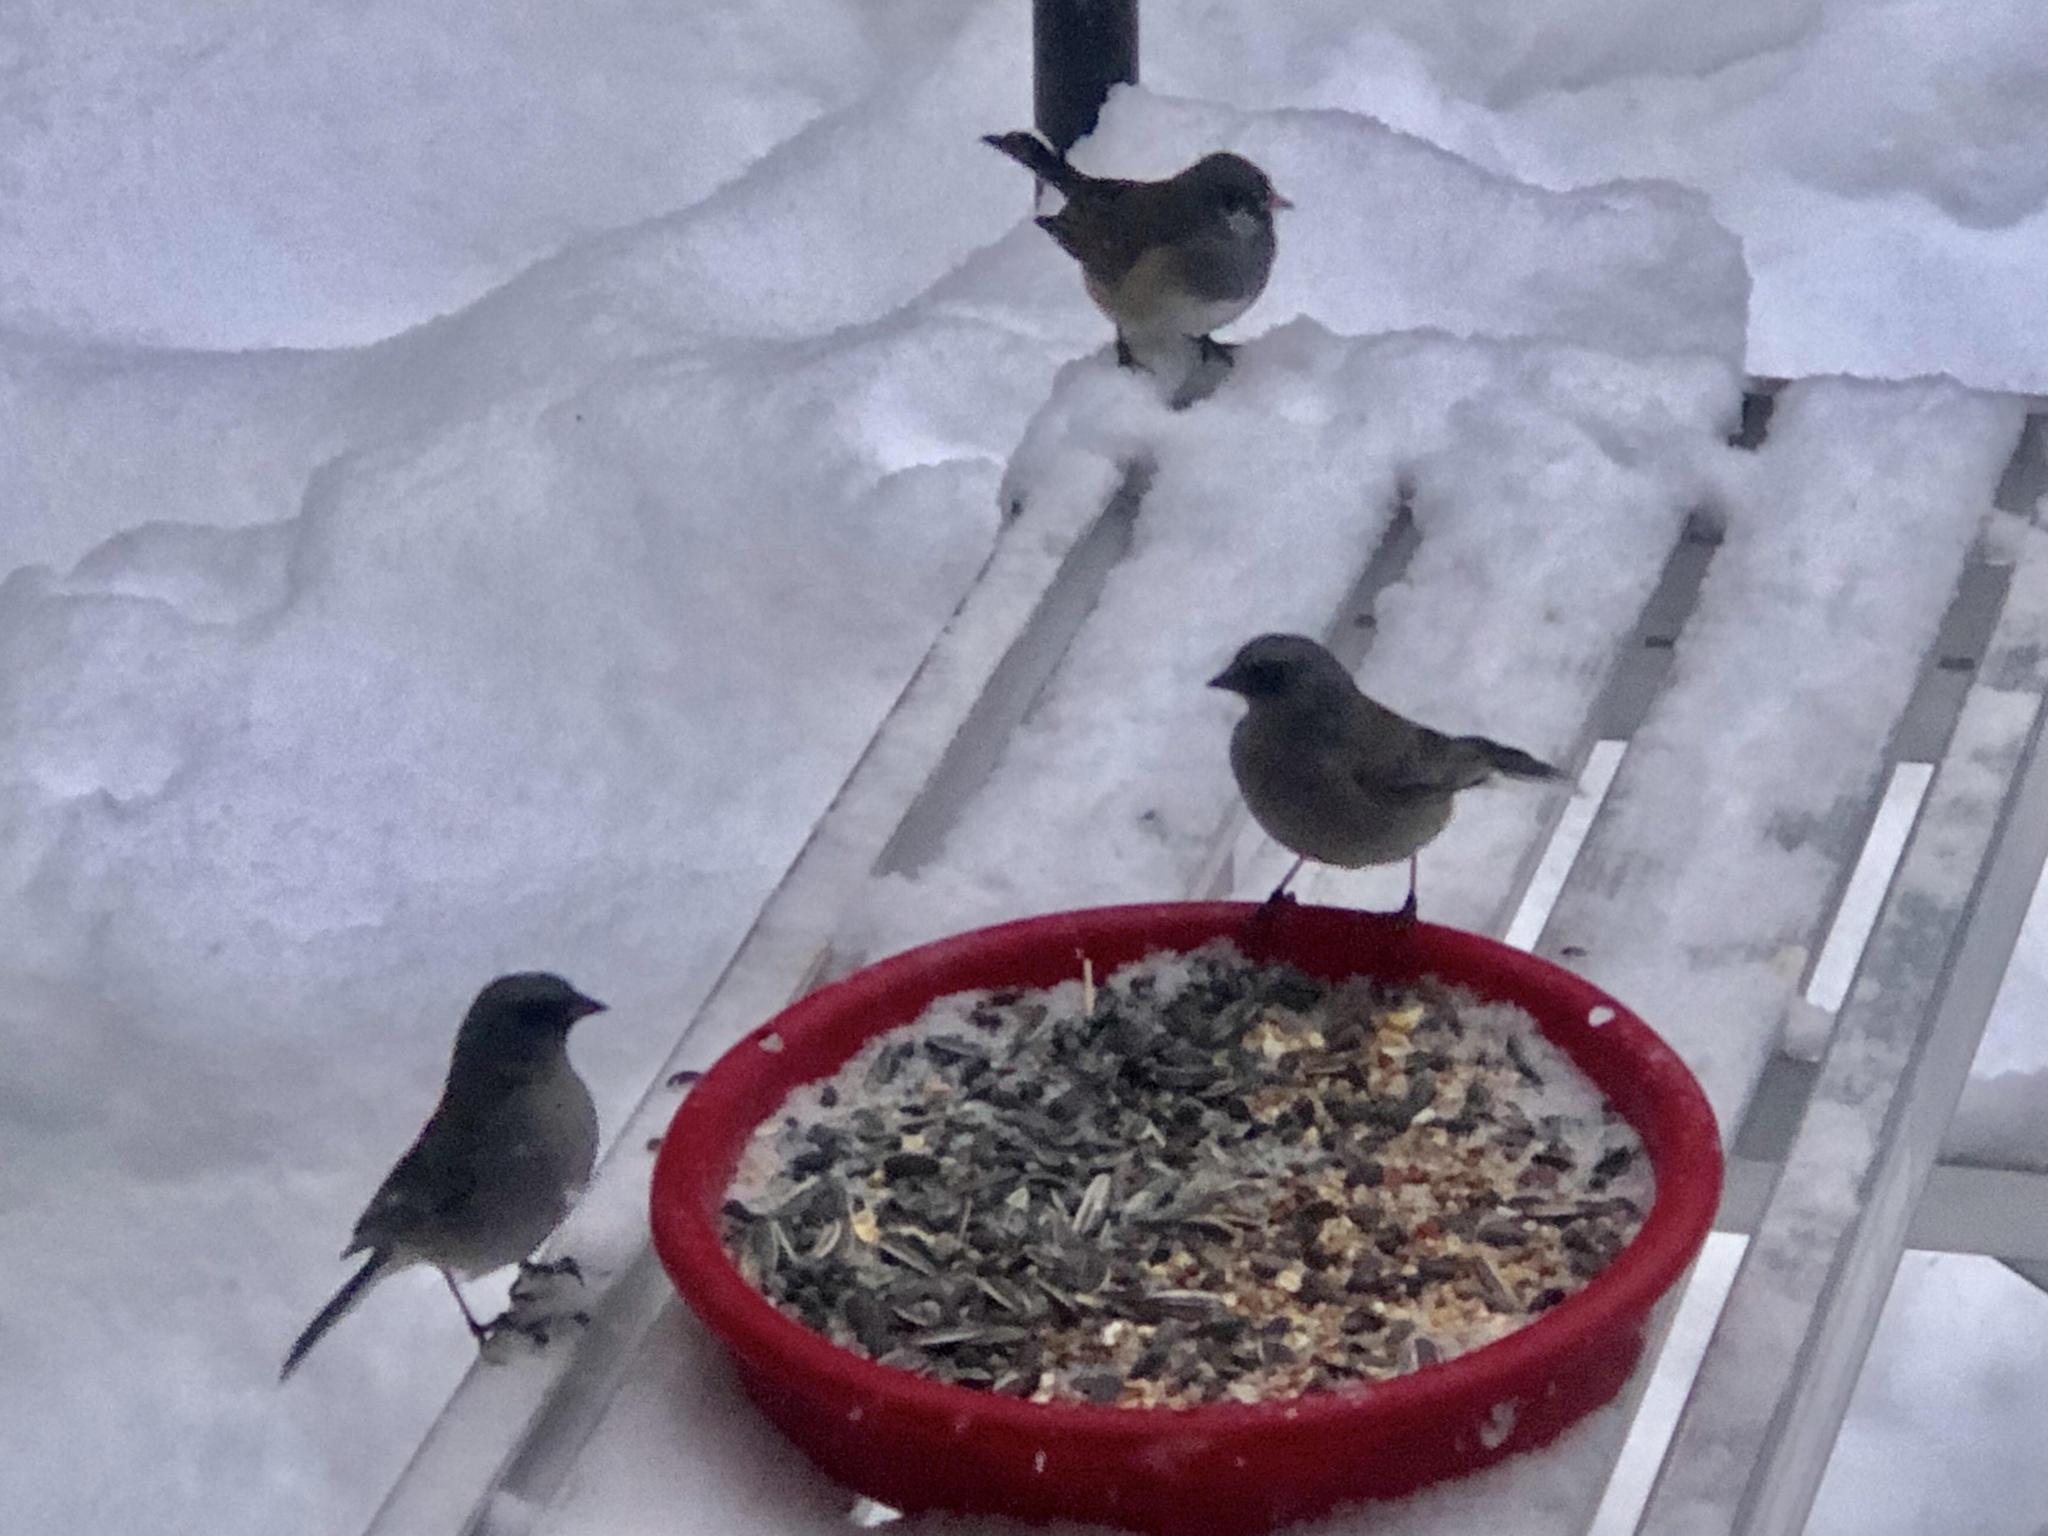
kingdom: Animalia
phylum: Chordata
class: Aves
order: Passeriformes
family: Passerellidae
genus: Junco
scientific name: Junco hyemalis
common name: Dark-eyed junco
